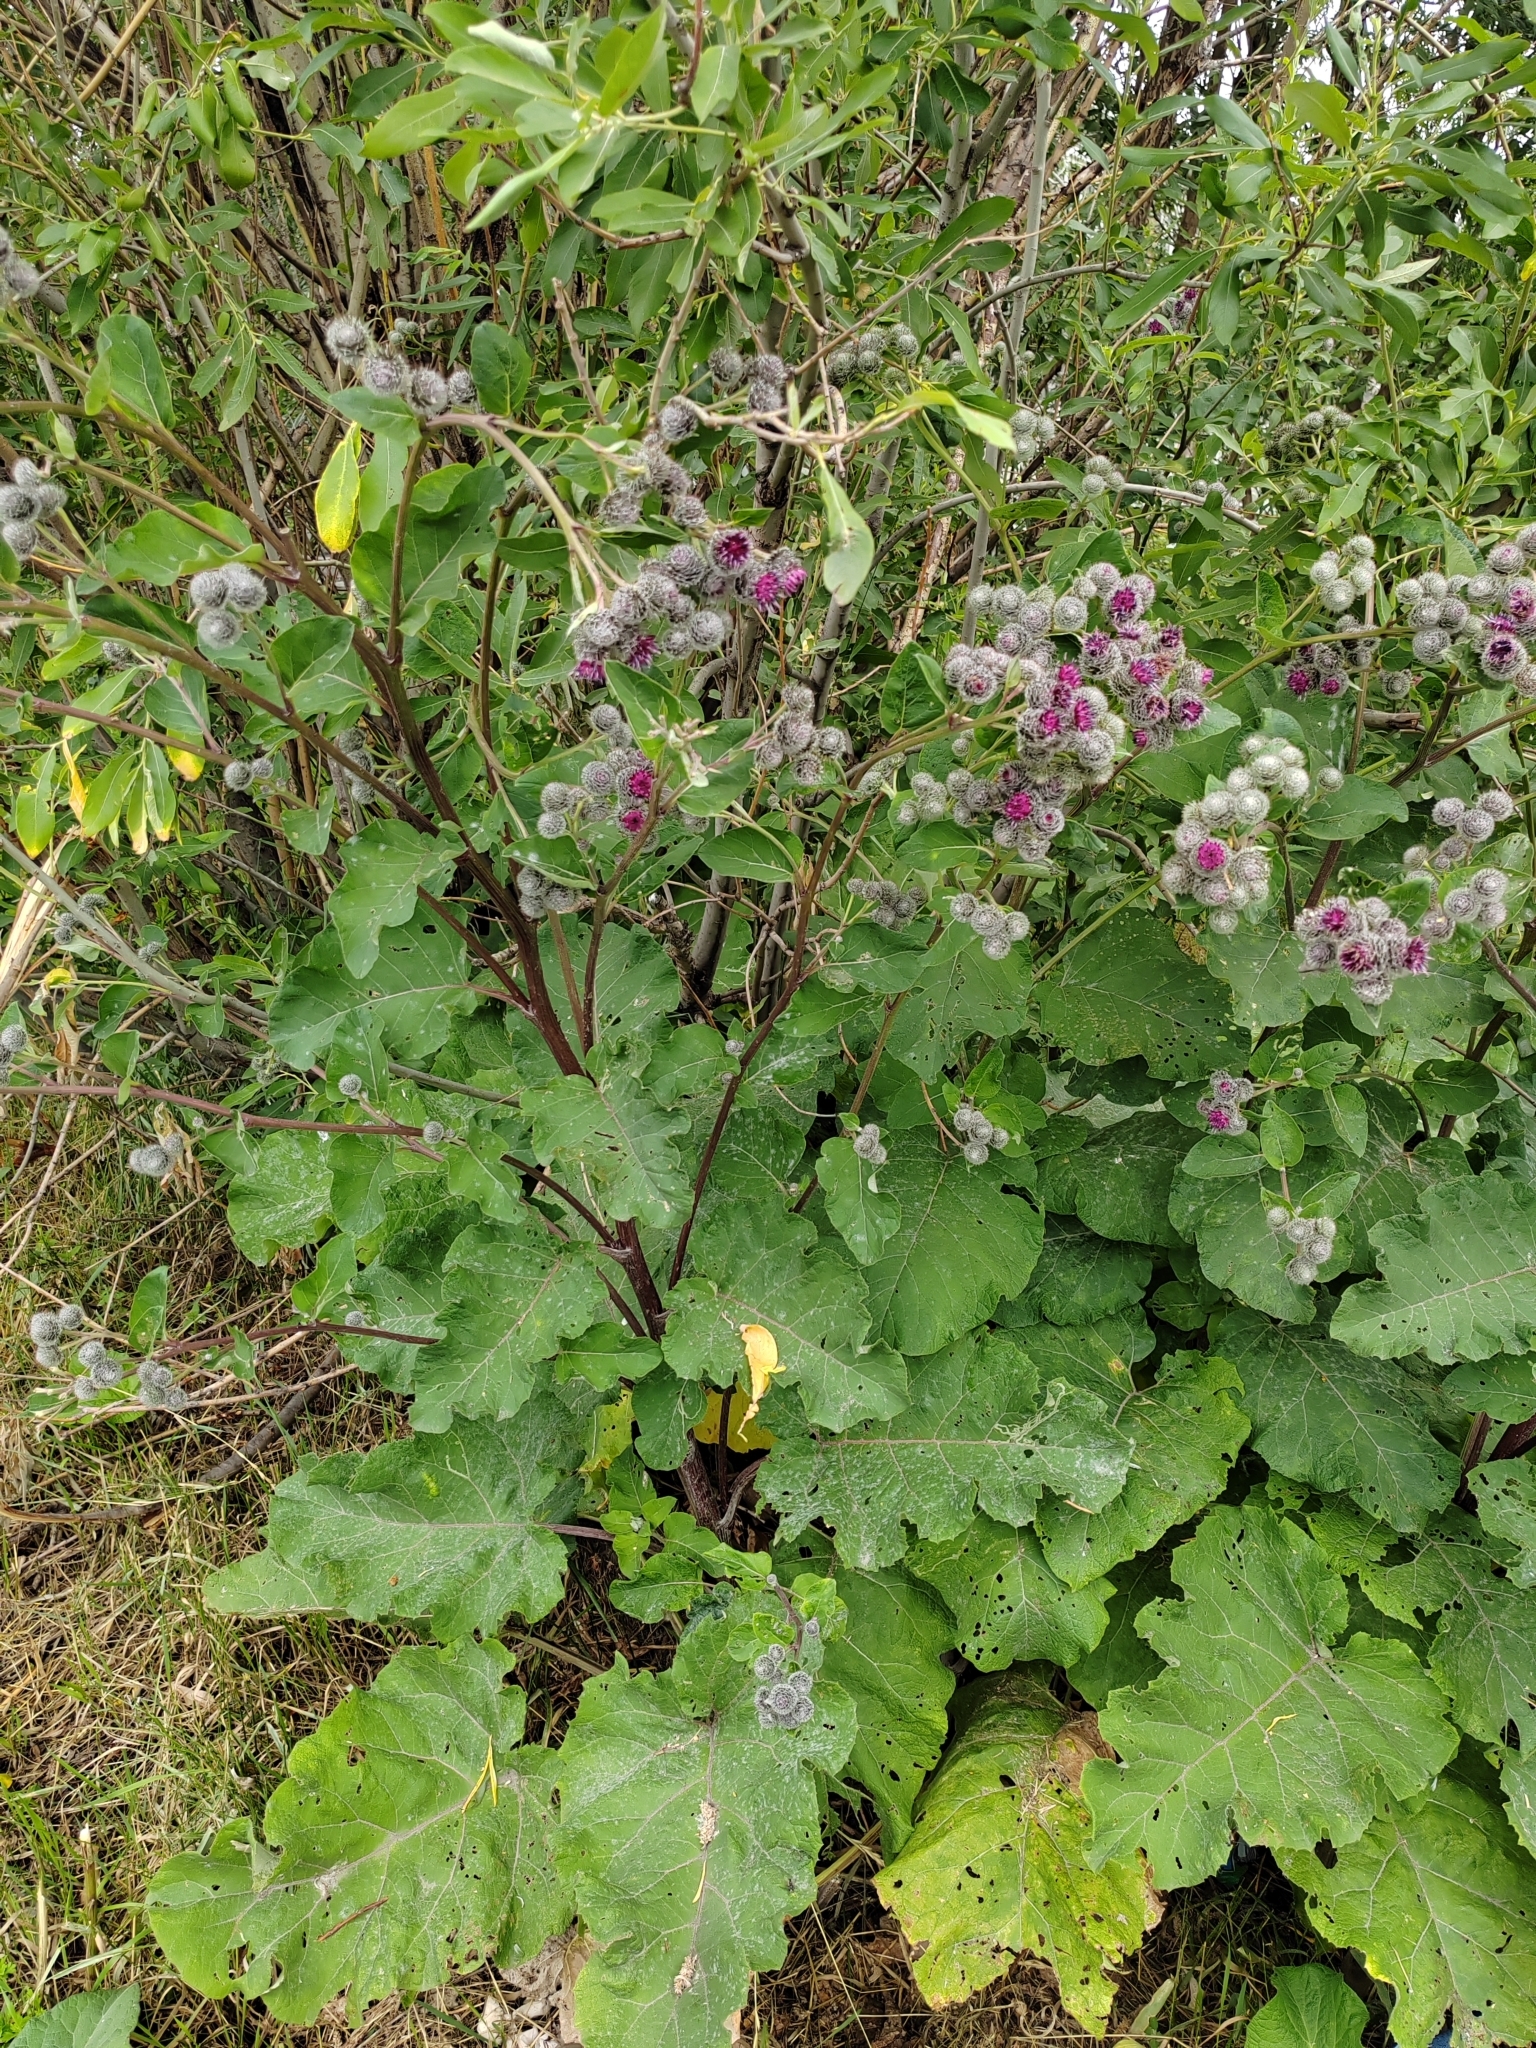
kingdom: Plantae
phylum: Tracheophyta
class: Magnoliopsida
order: Asterales
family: Asteraceae
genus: Arctium
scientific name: Arctium tomentosum
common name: Woolly burdock
